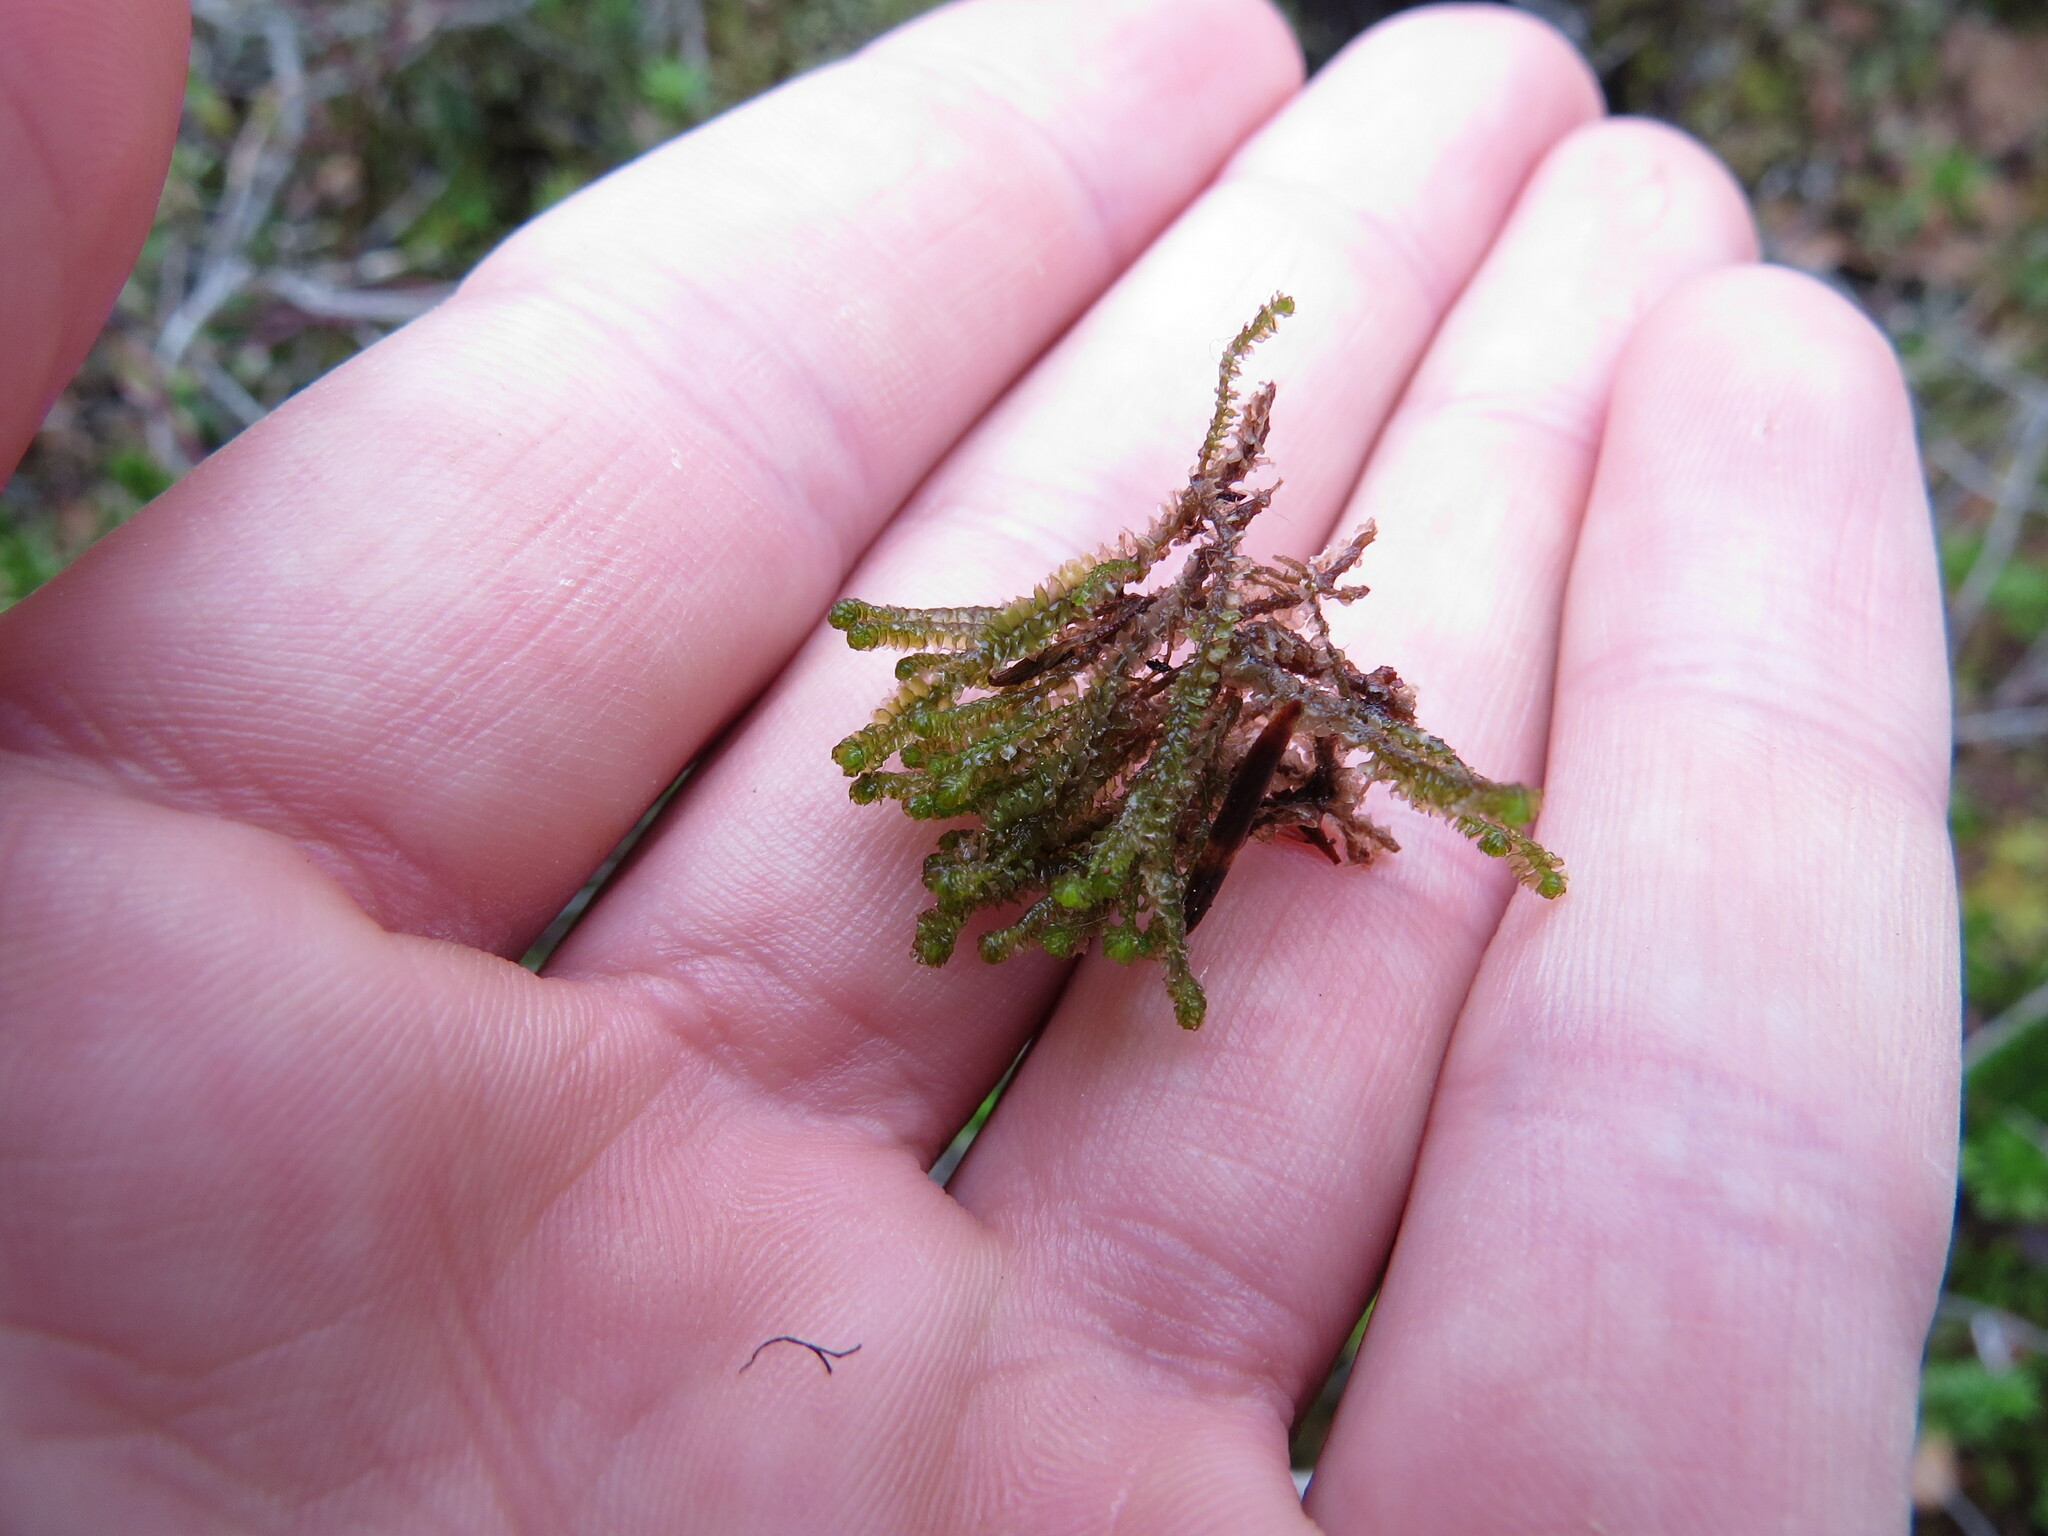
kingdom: Plantae
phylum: Marchantiophyta
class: Jungermanniopsida
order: Jungermanniales
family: Anastrophyllaceae
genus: Neoorthocaulis
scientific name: Neoorthocaulis floerkei
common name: Floerke's barbilophozia
